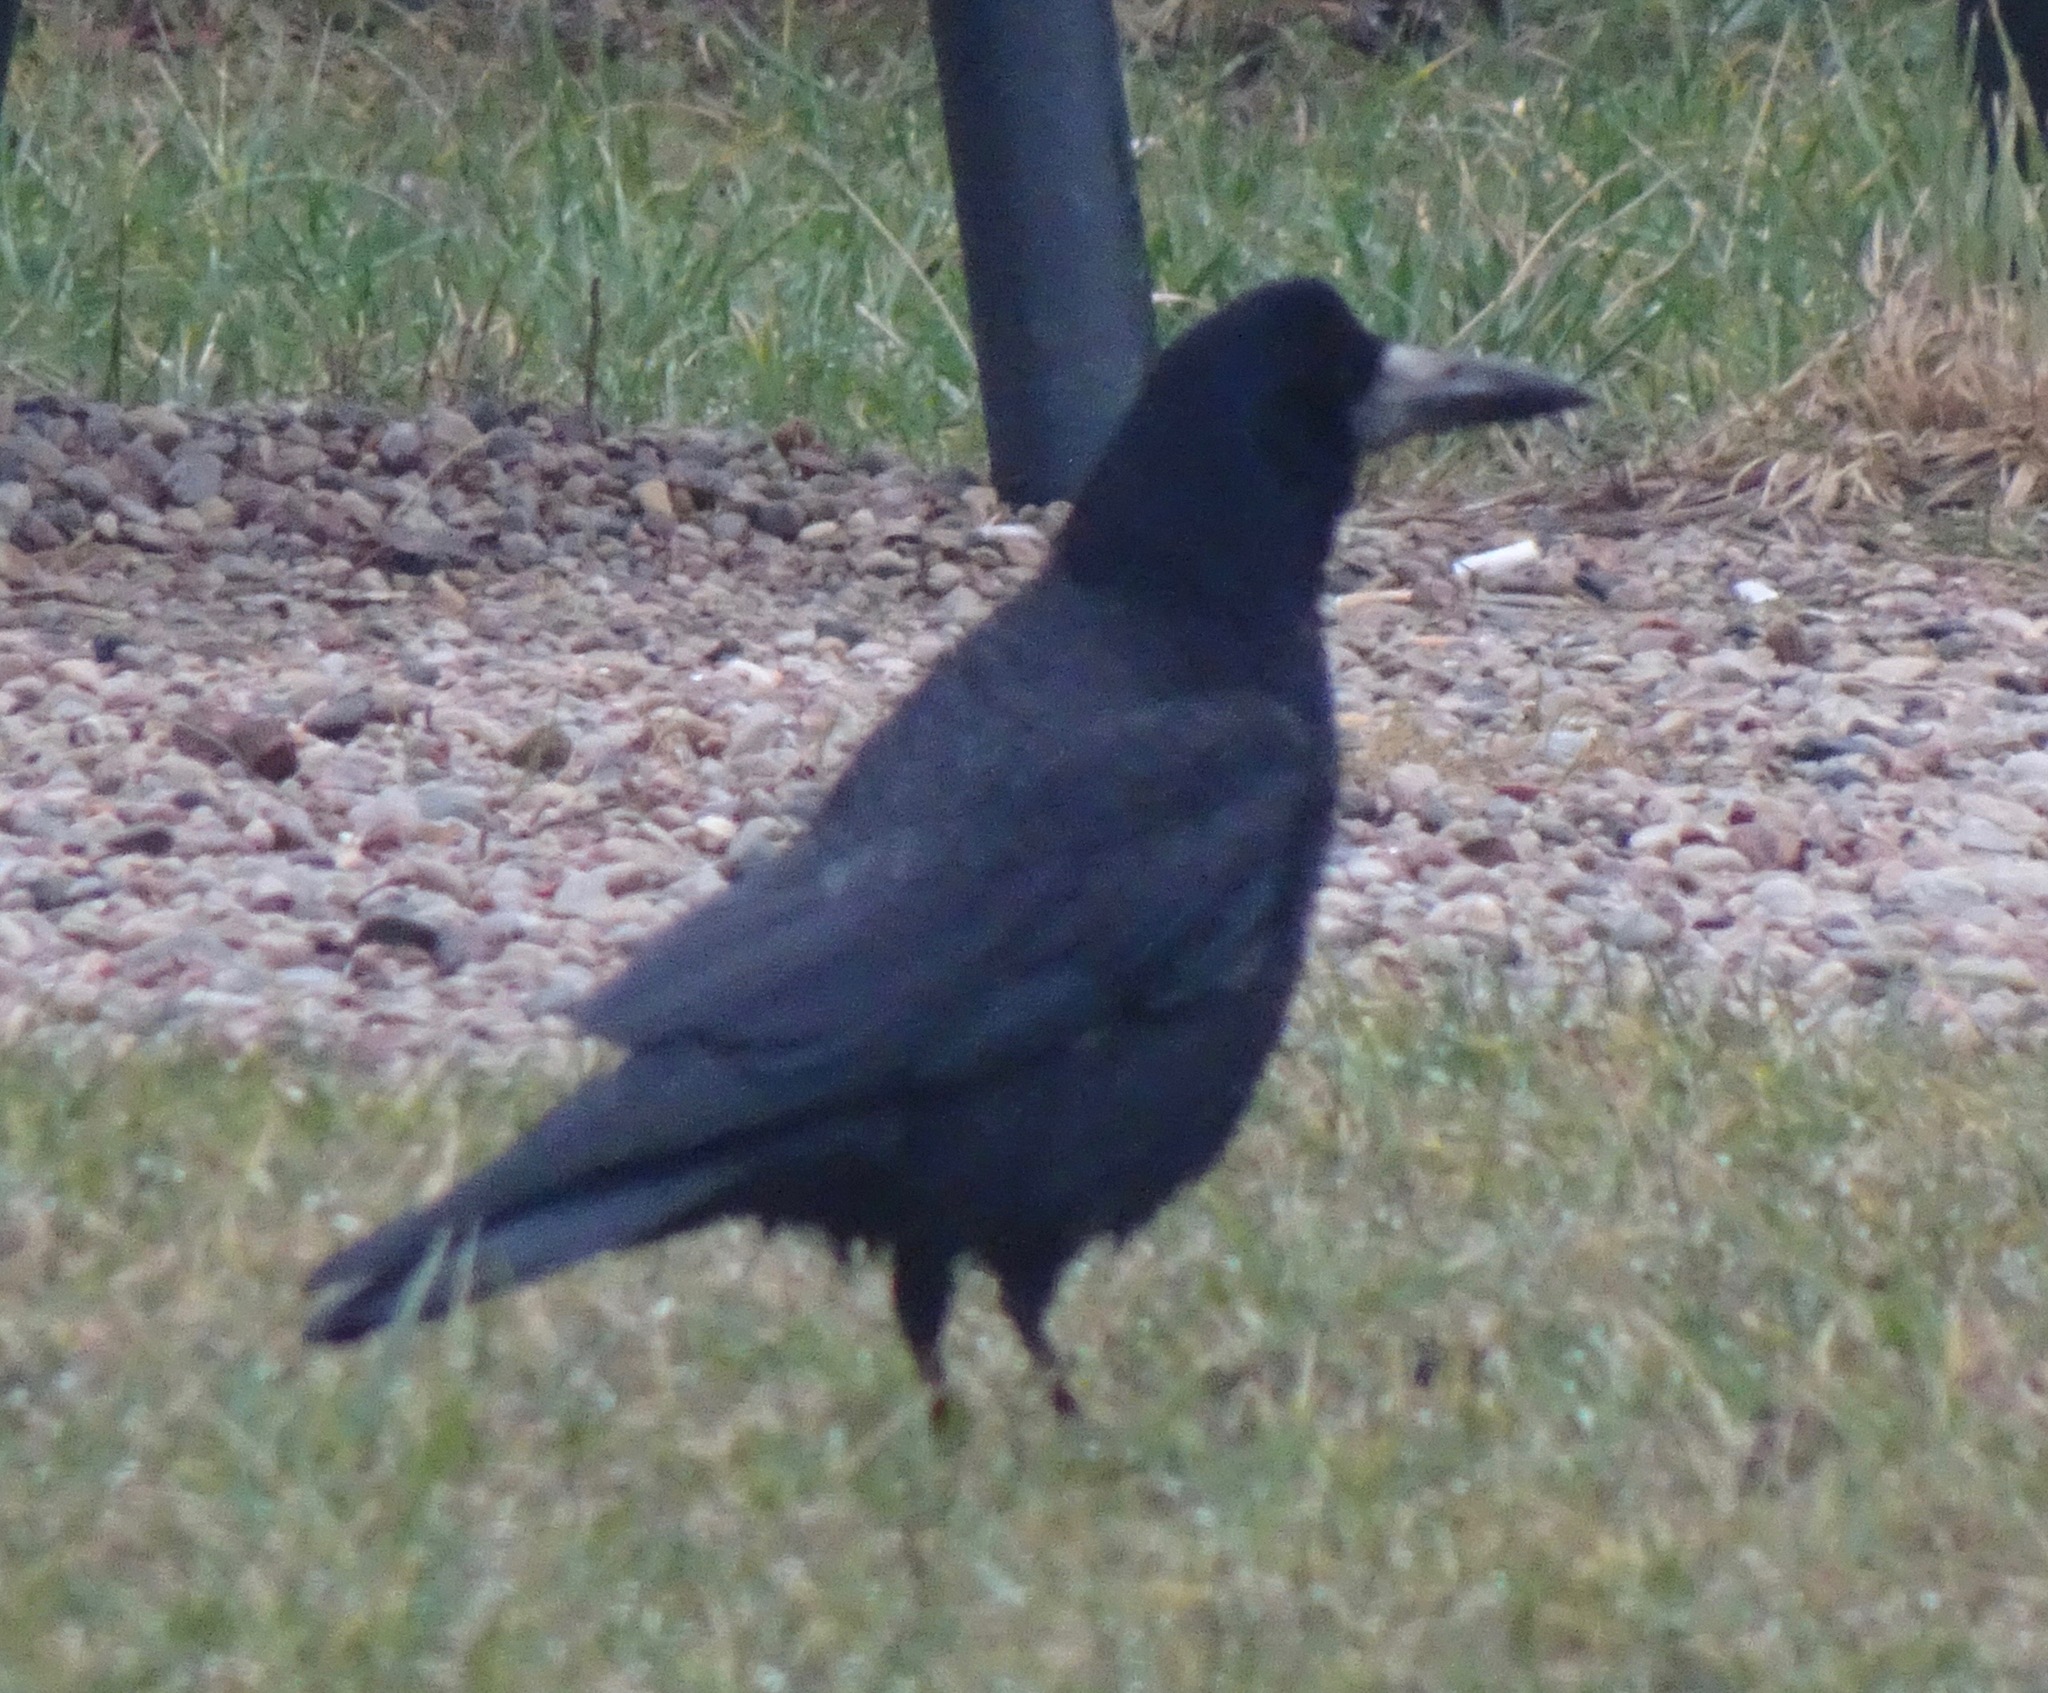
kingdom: Animalia
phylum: Chordata
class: Aves
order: Passeriformes
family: Corvidae
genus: Corvus
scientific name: Corvus frugilegus
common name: Rook
